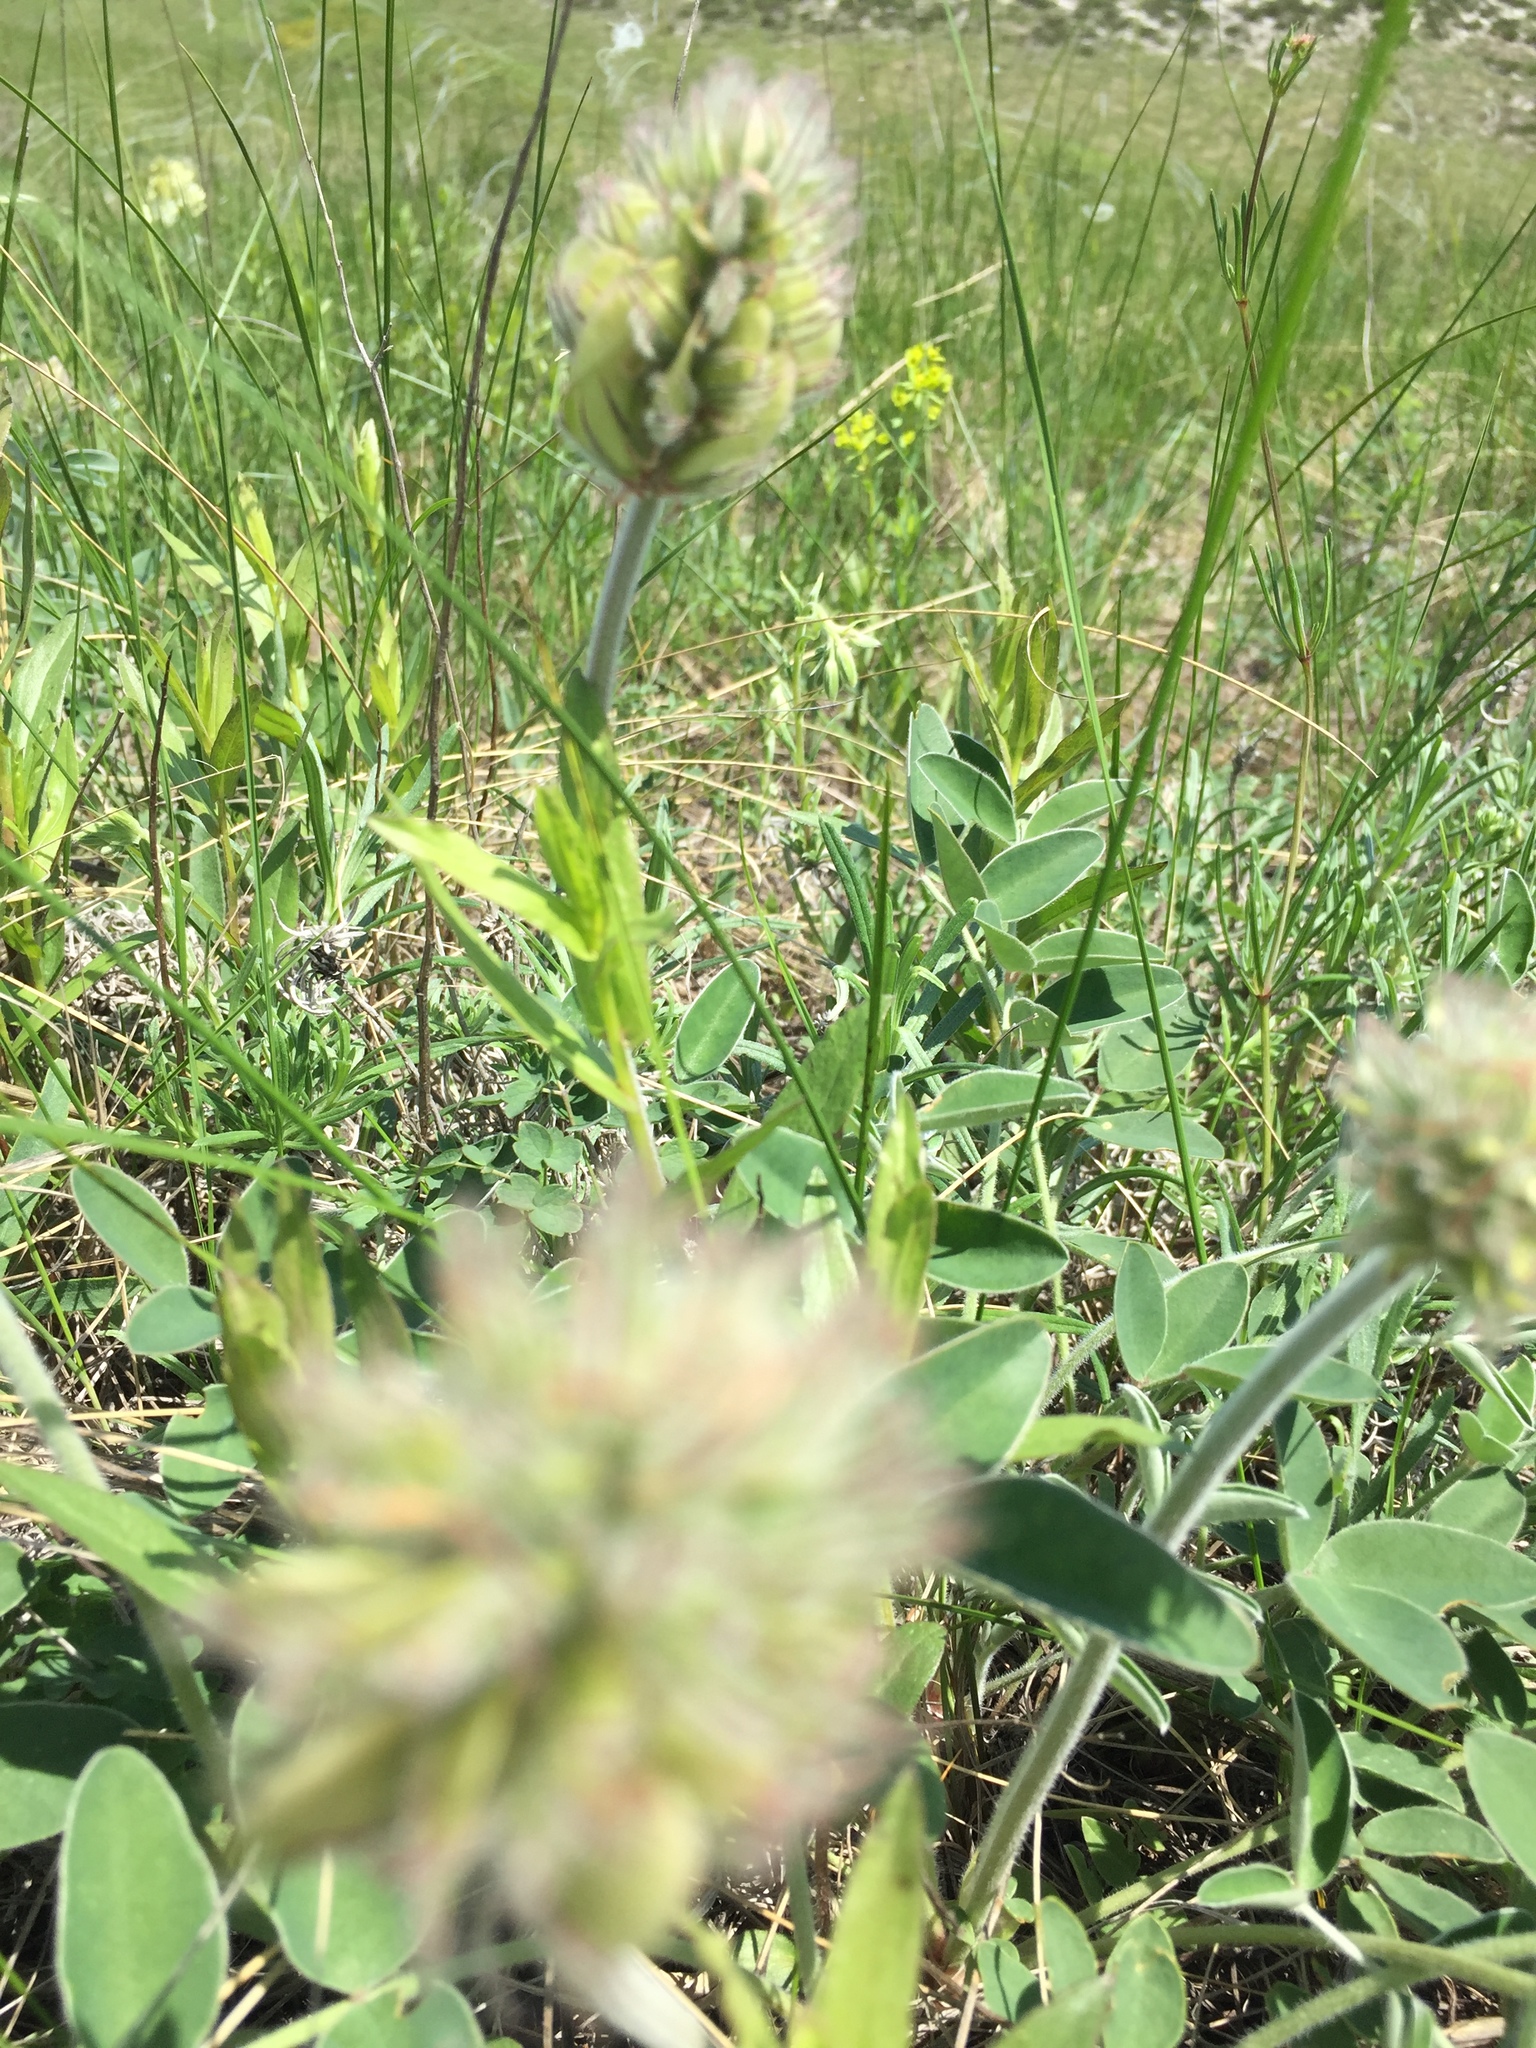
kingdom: Plantae
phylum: Tracheophyta
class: Magnoliopsida
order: Fabales
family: Fabaceae
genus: Hedysarum
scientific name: Hedysarum grandiflorum
